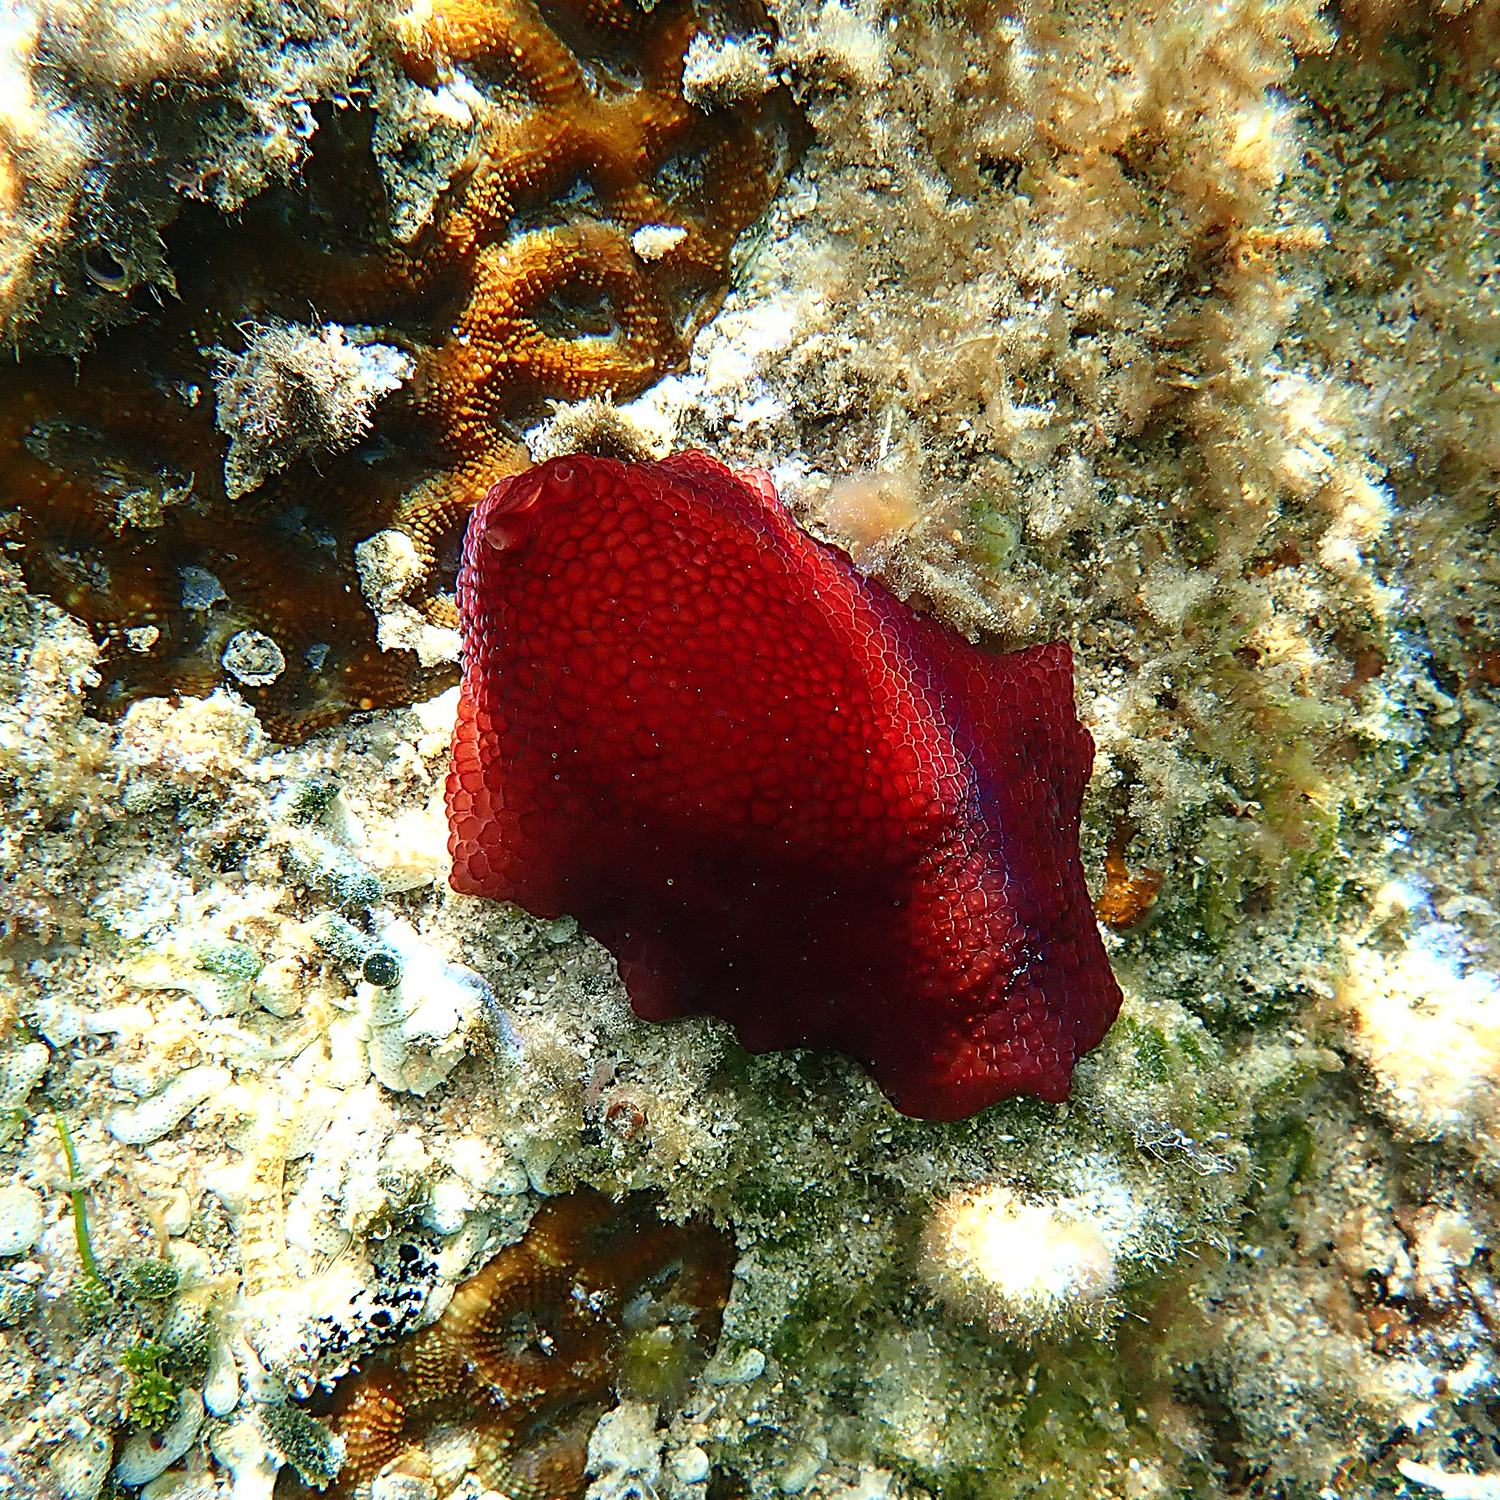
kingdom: Animalia
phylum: Mollusca
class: Gastropoda
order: Pleurobranchida
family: Pleurobranchidae
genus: Pleurobranchus
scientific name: Pleurobranchus peronii
